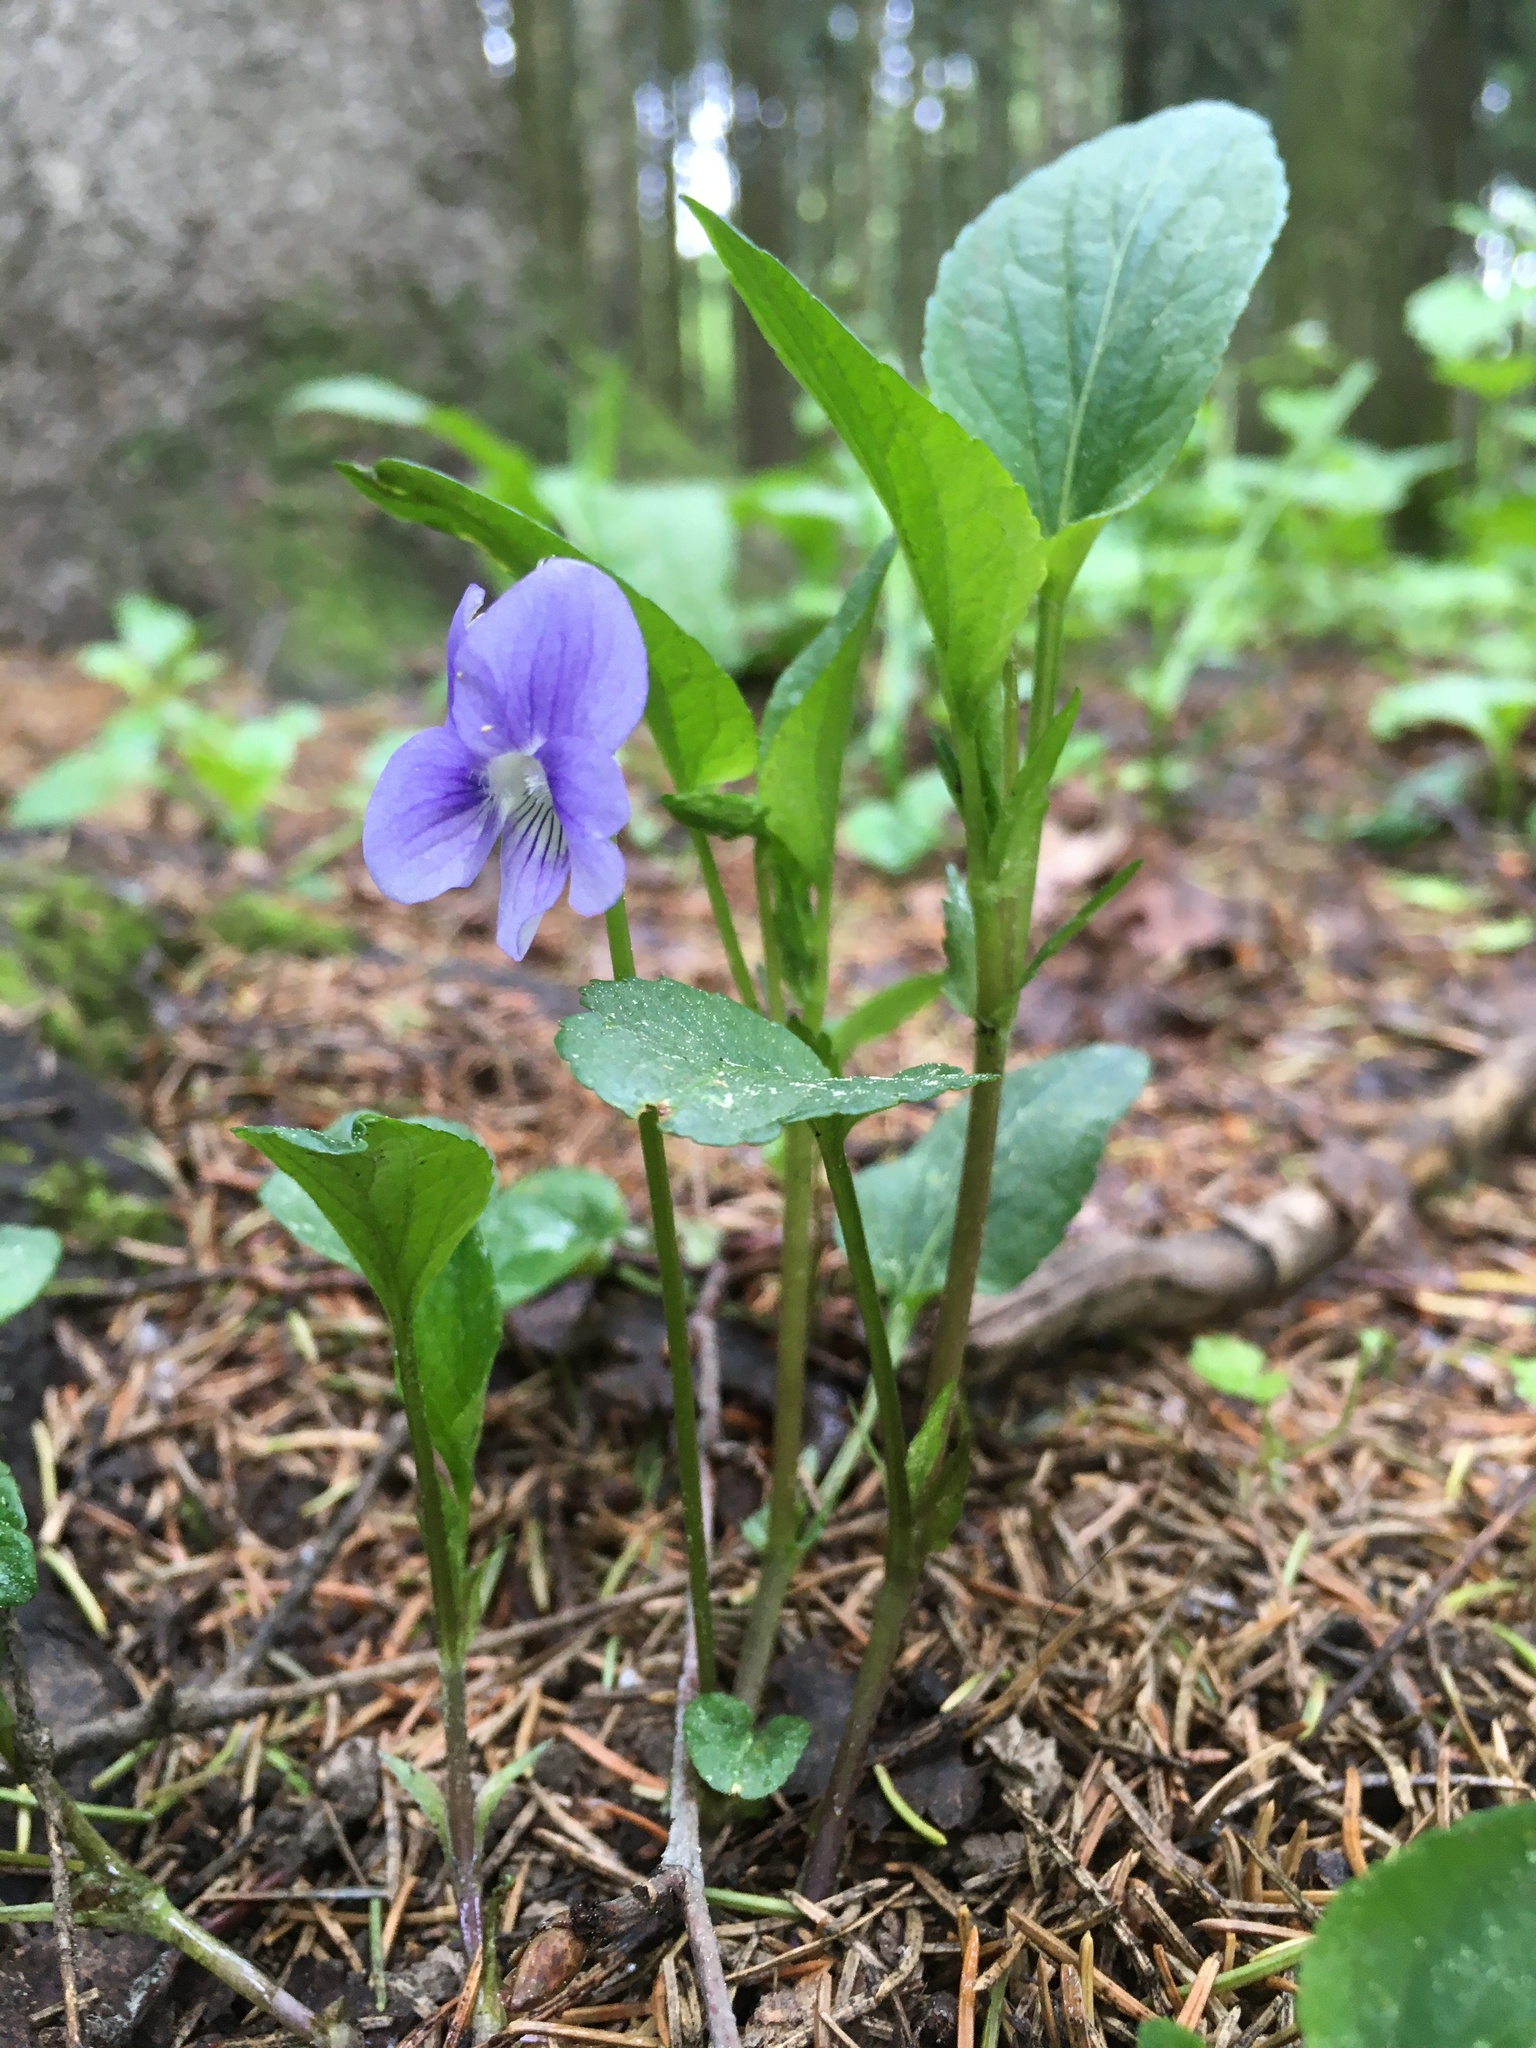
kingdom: Plantae
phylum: Tracheophyta
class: Magnoliopsida
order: Malpighiales
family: Violaceae
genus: Viola
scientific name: Viola canina
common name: Heath dog-violet
